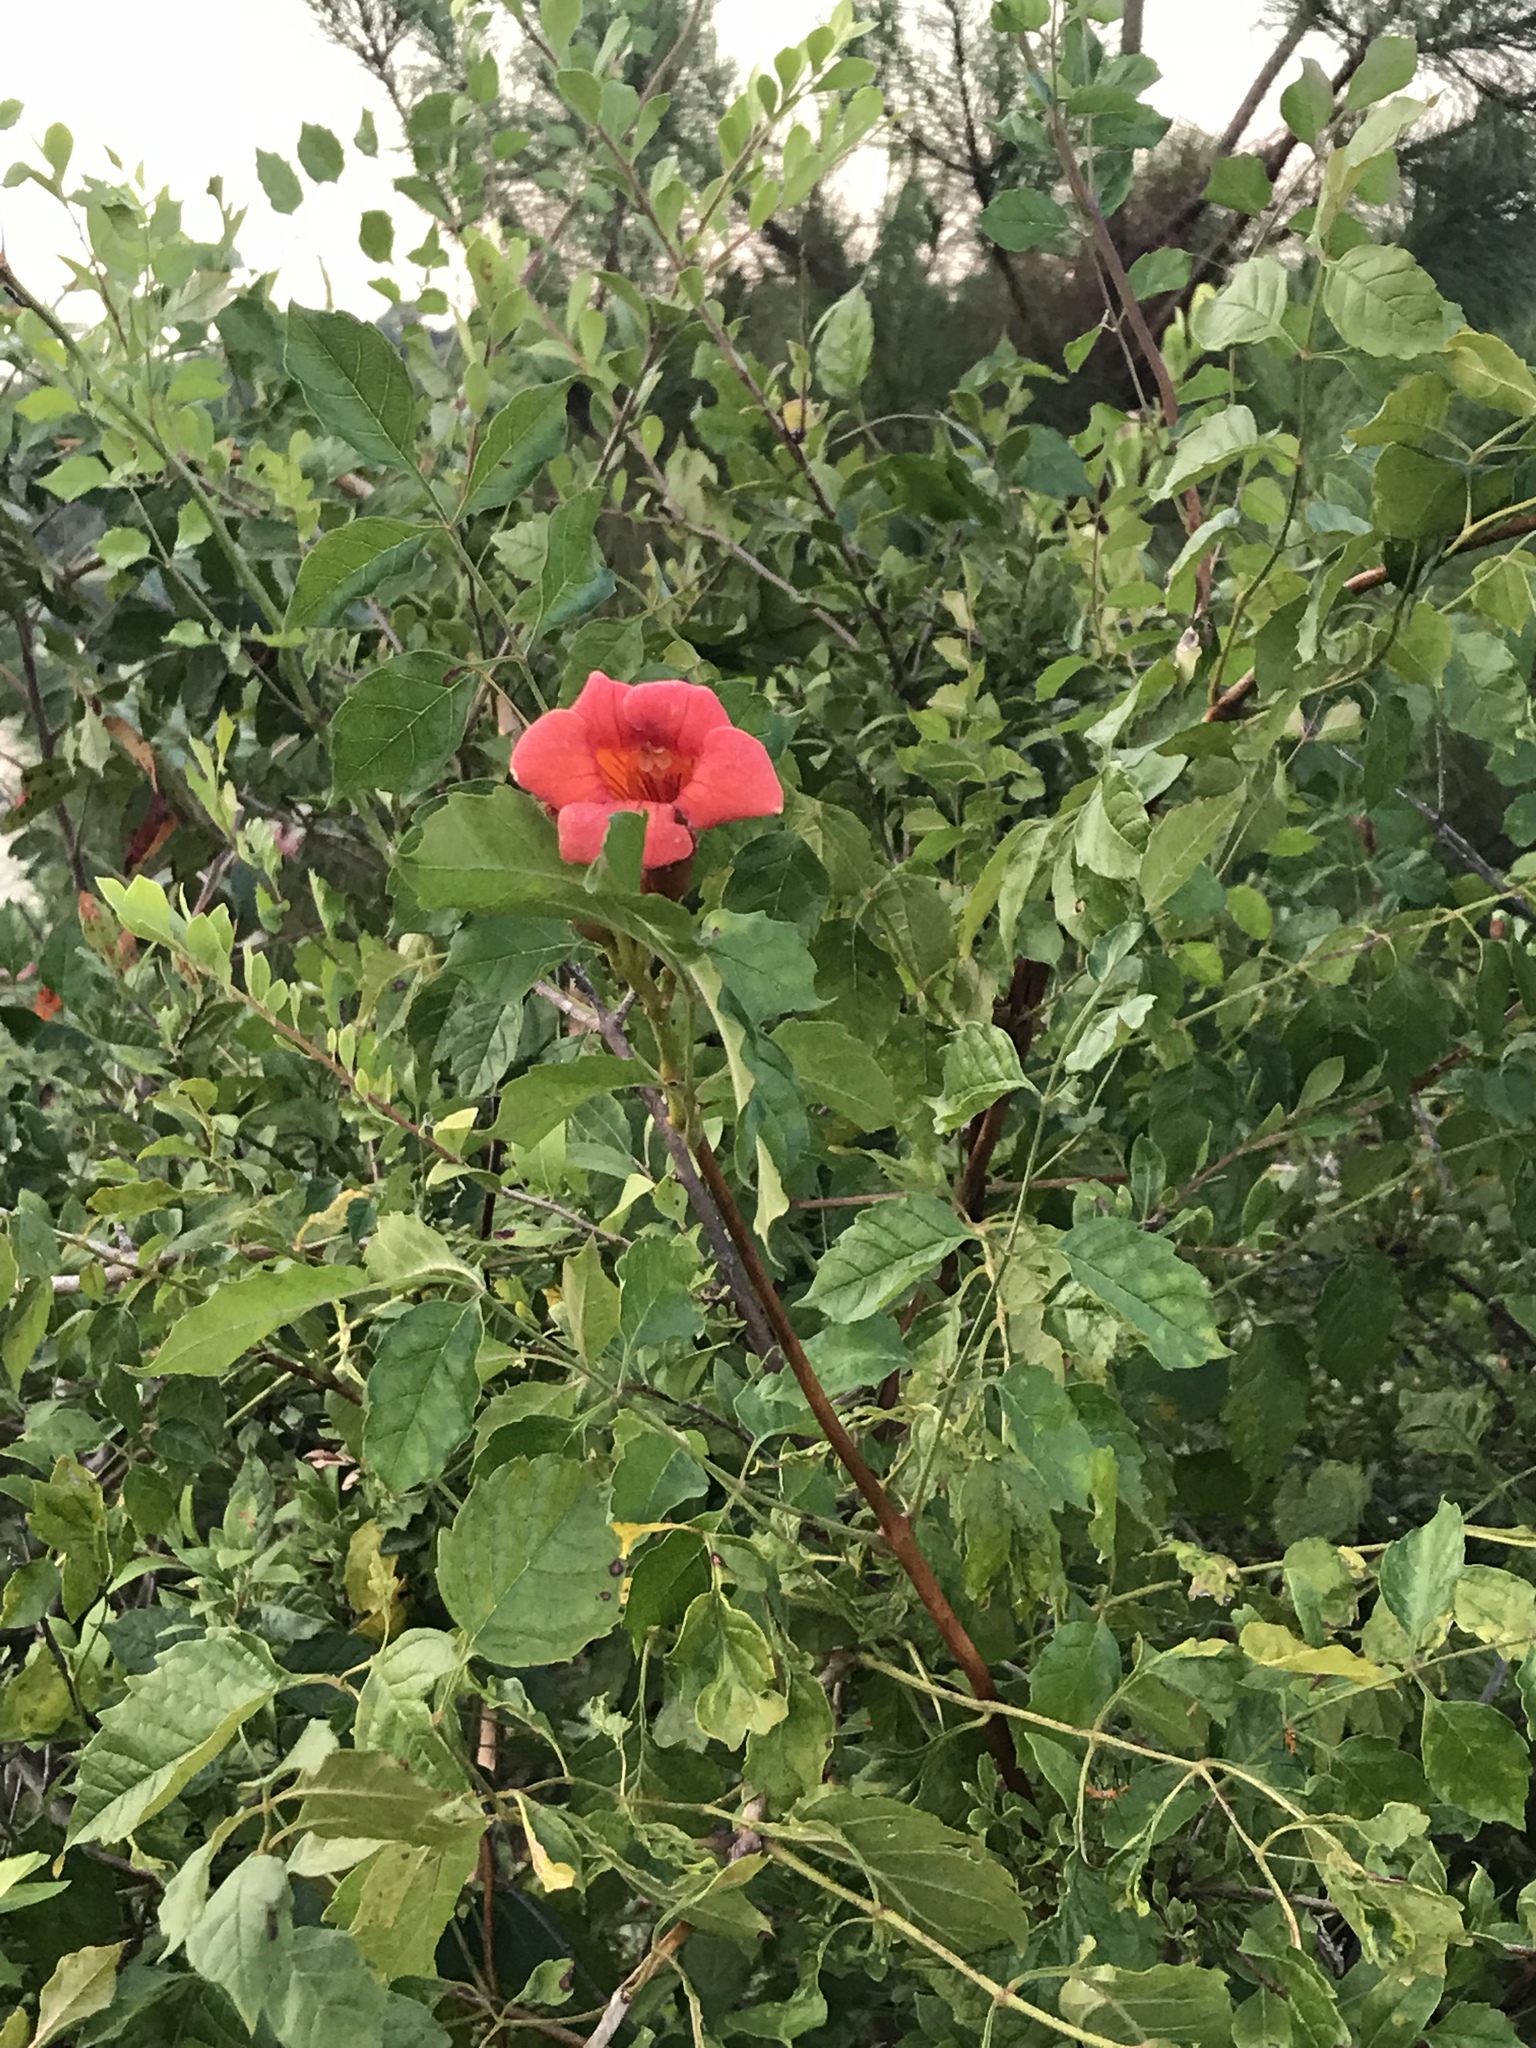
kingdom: Plantae
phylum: Tracheophyta
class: Magnoliopsida
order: Lamiales
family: Bignoniaceae
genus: Campsis
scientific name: Campsis radicans
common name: Trumpet-creeper
